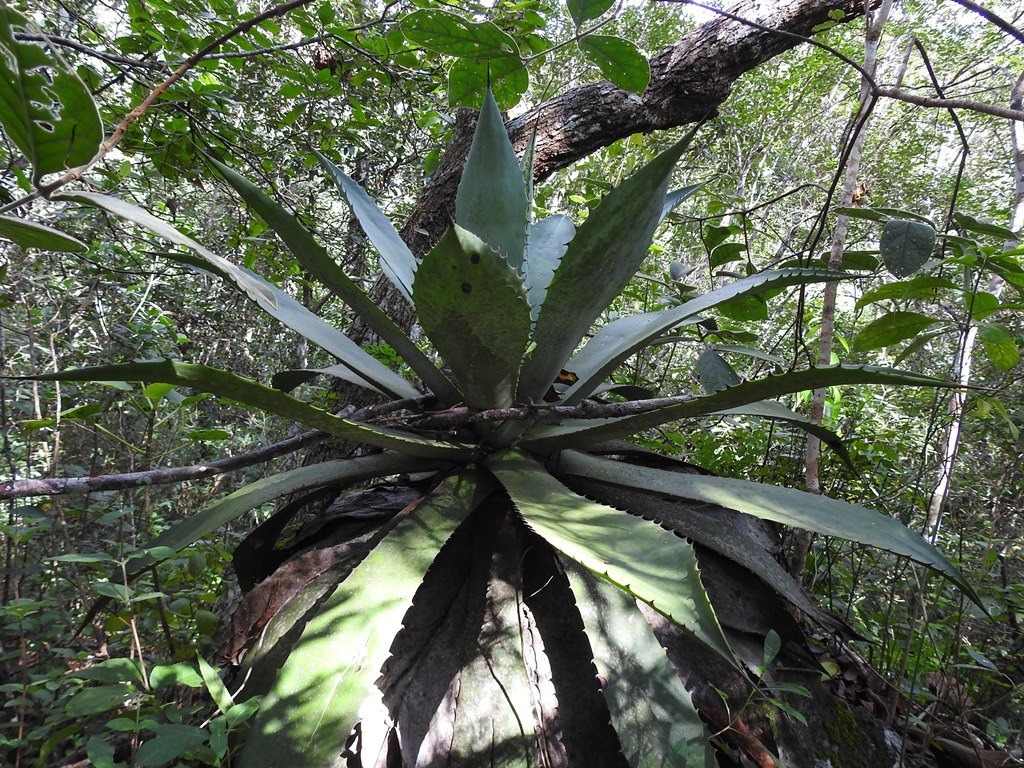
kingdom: Plantae
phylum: Tracheophyta
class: Liliopsida
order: Asparagales
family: Asparagaceae
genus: Agave
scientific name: Agave kewensis
